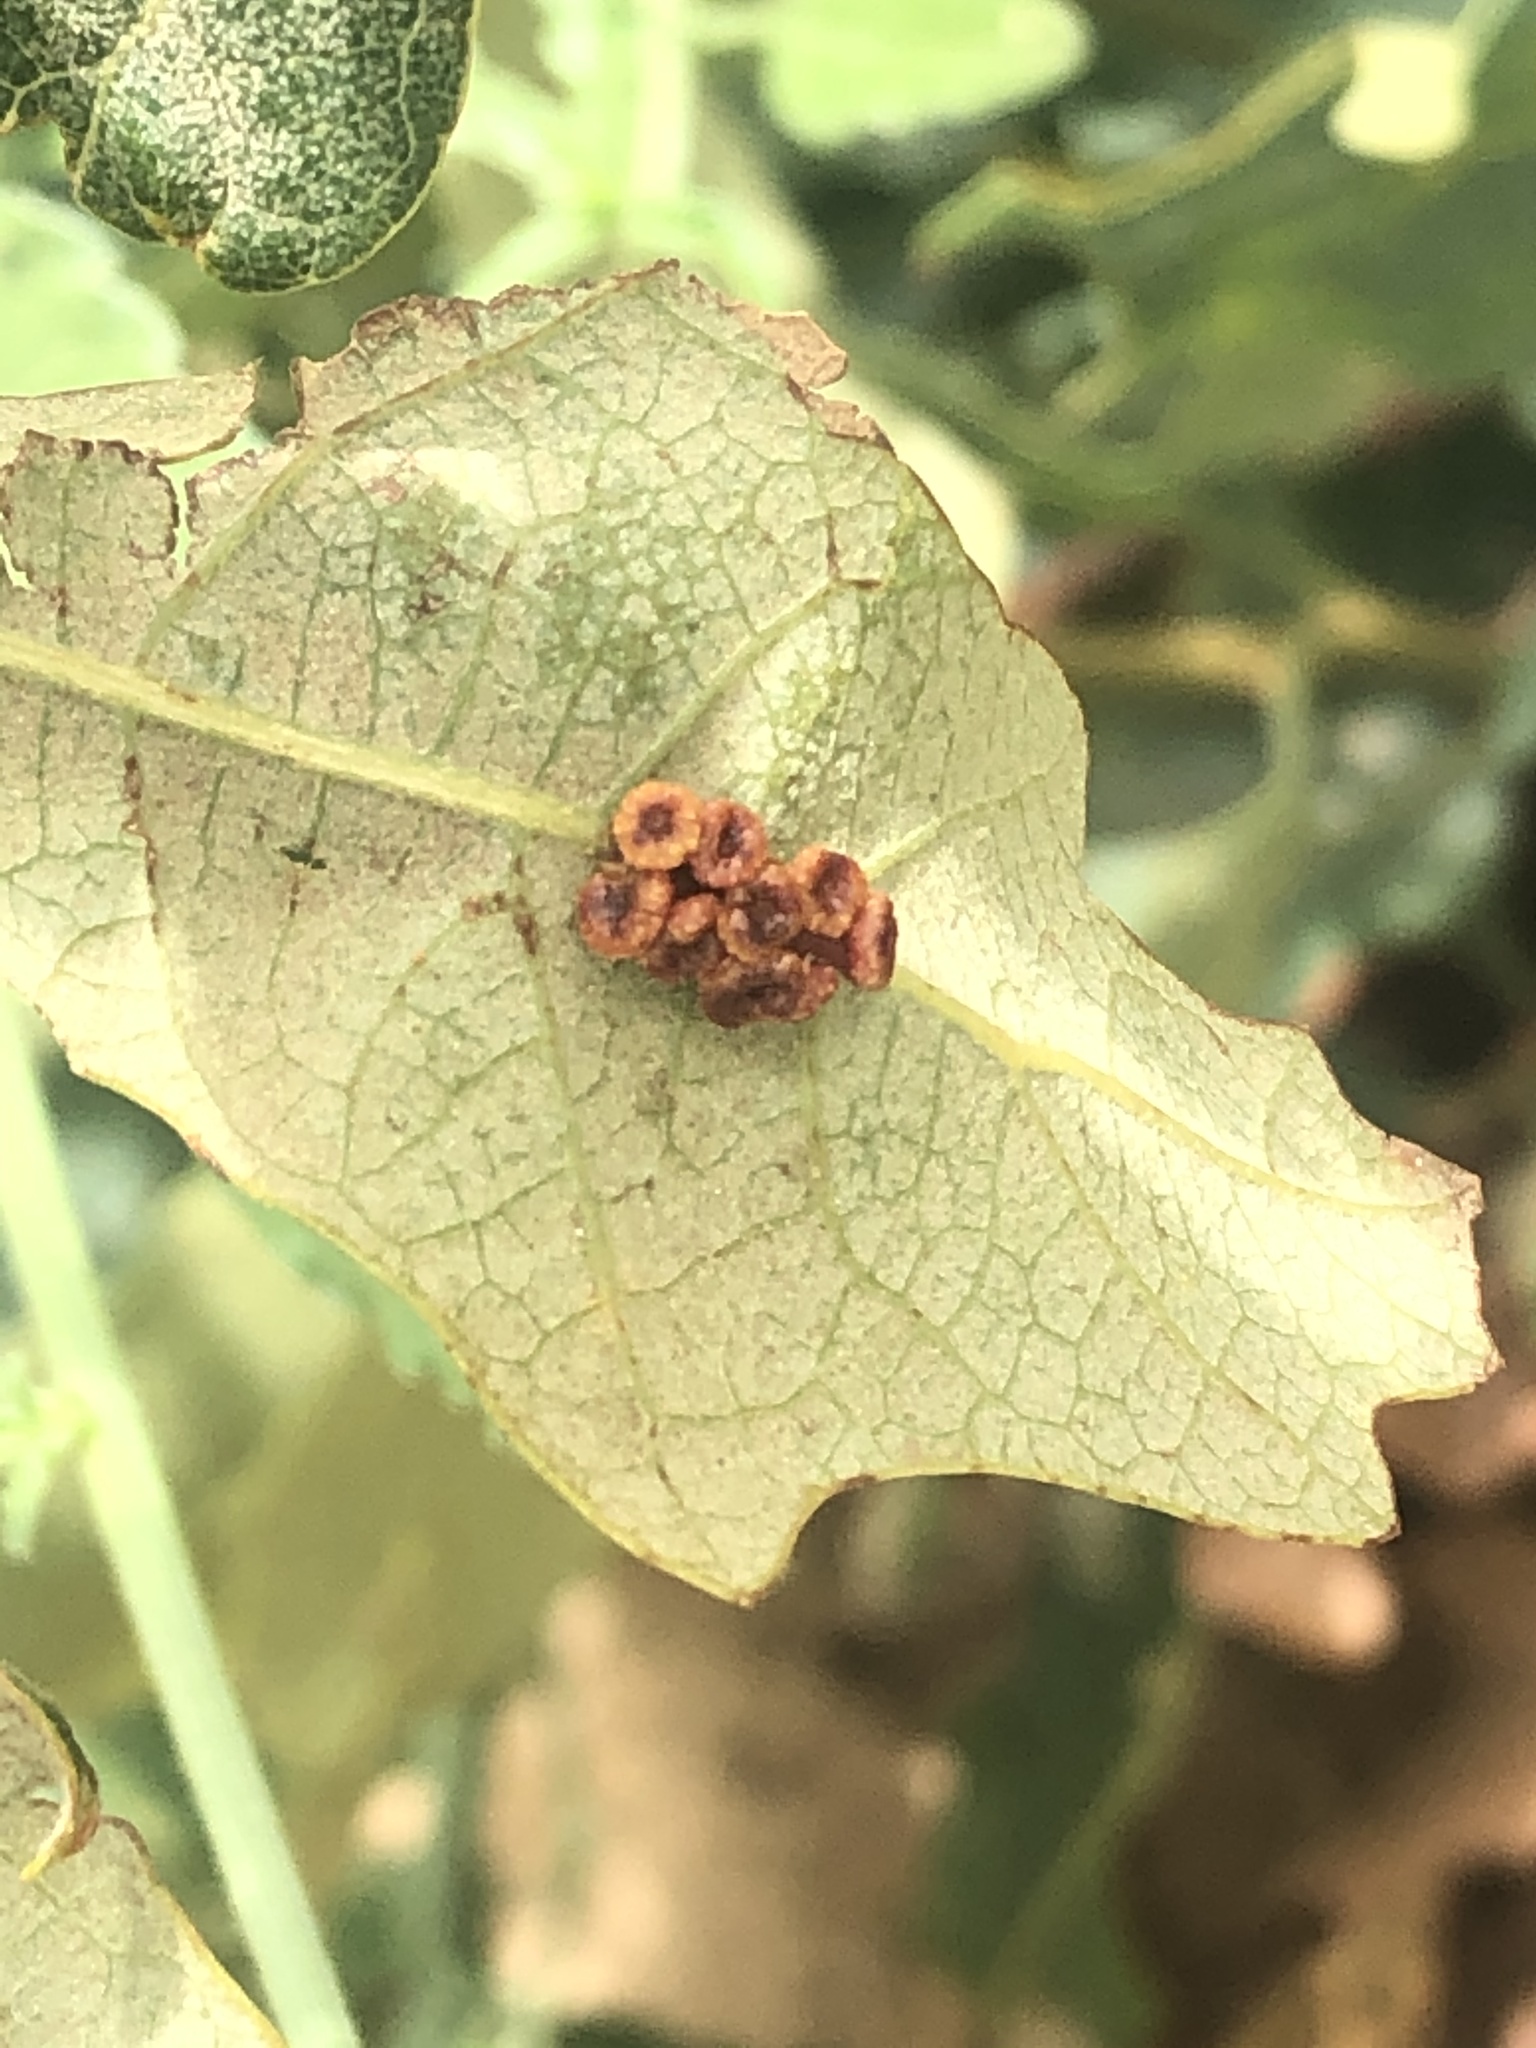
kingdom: Animalia
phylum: Arthropoda
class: Insecta
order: Hymenoptera
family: Cynipidae
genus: Callirhytis
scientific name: Callirhytis
